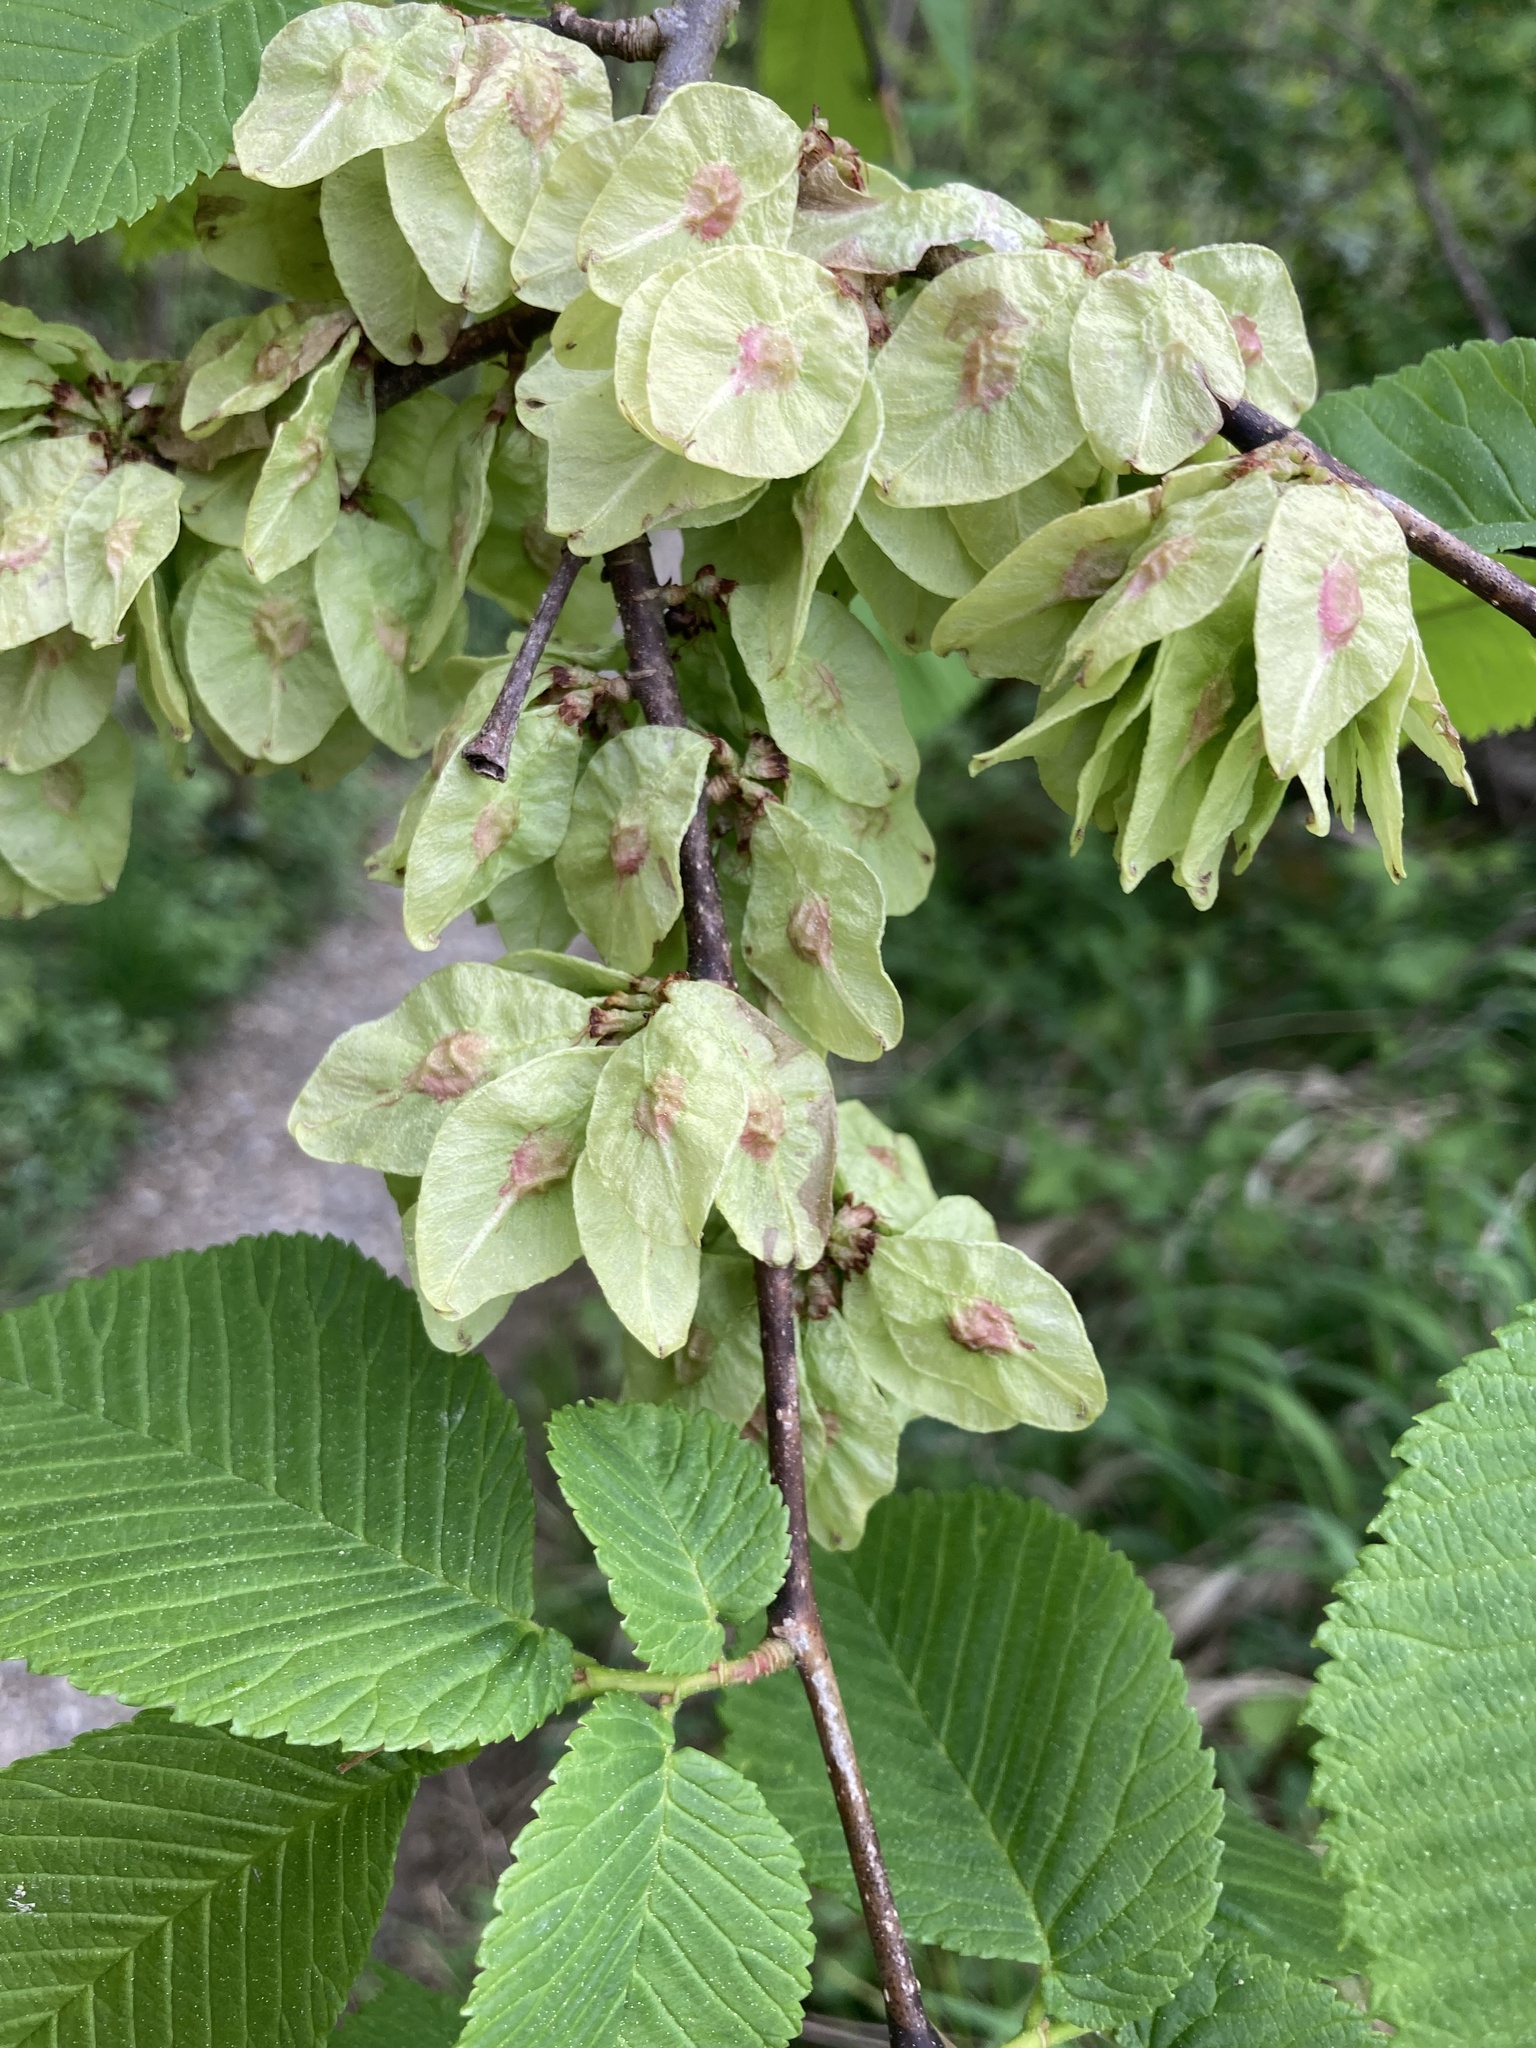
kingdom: Plantae
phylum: Tracheophyta
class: Magnoliopsida
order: Rosales
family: Ulmaceae
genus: Ulmus
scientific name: Ulmus glabra
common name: Wych elm
